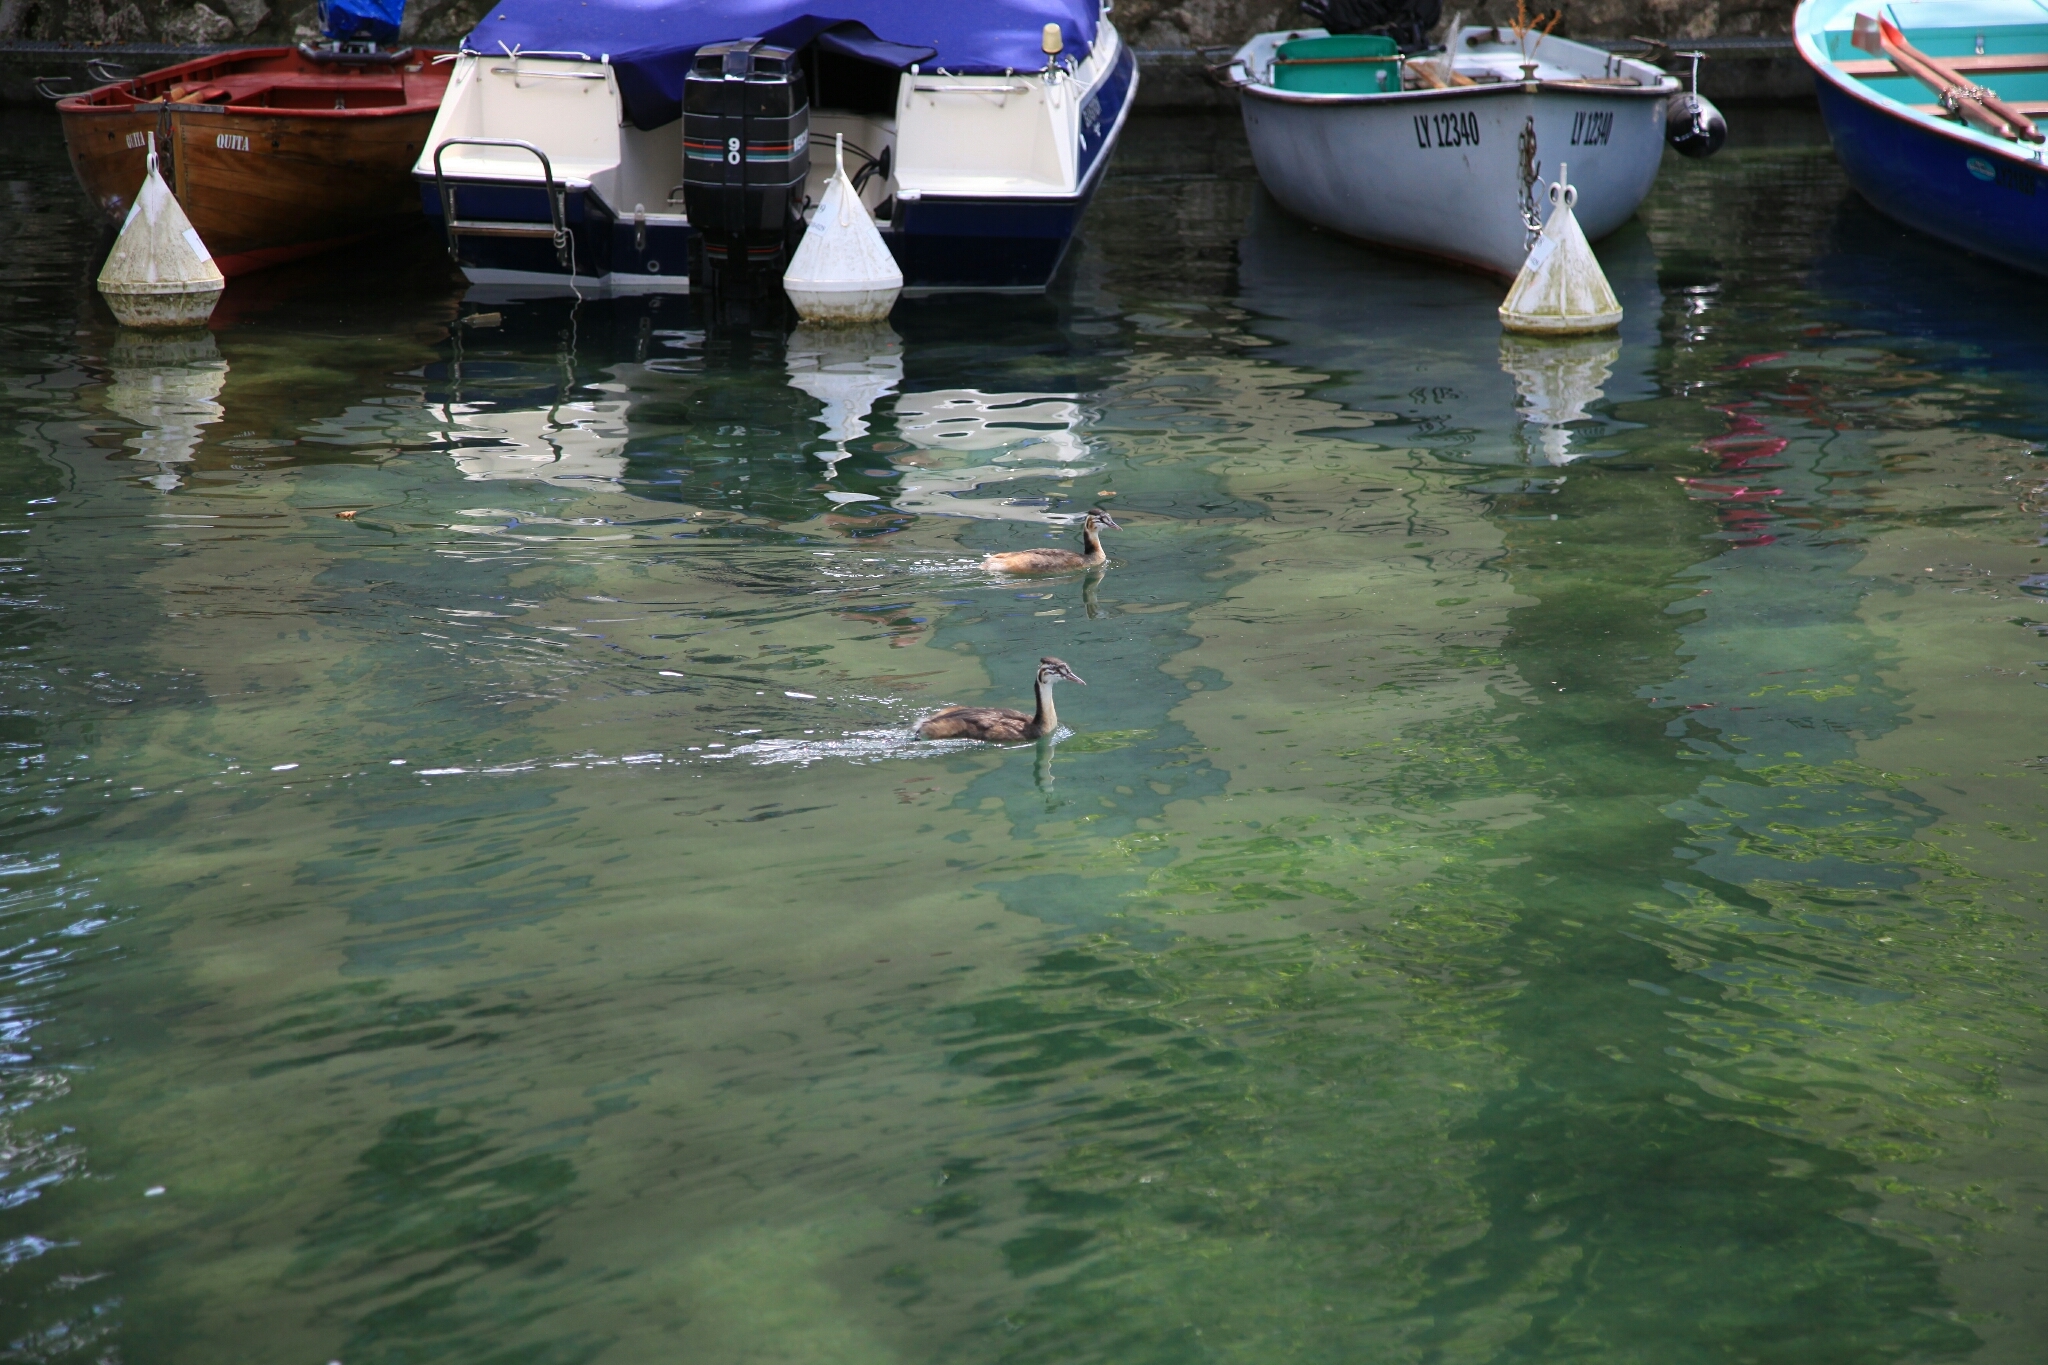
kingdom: Animalia
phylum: Chordata
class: Aves
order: Podicipediformes
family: Podicipedidae
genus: Podiceps
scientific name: Podiceps cristatus
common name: Great crested grebe
